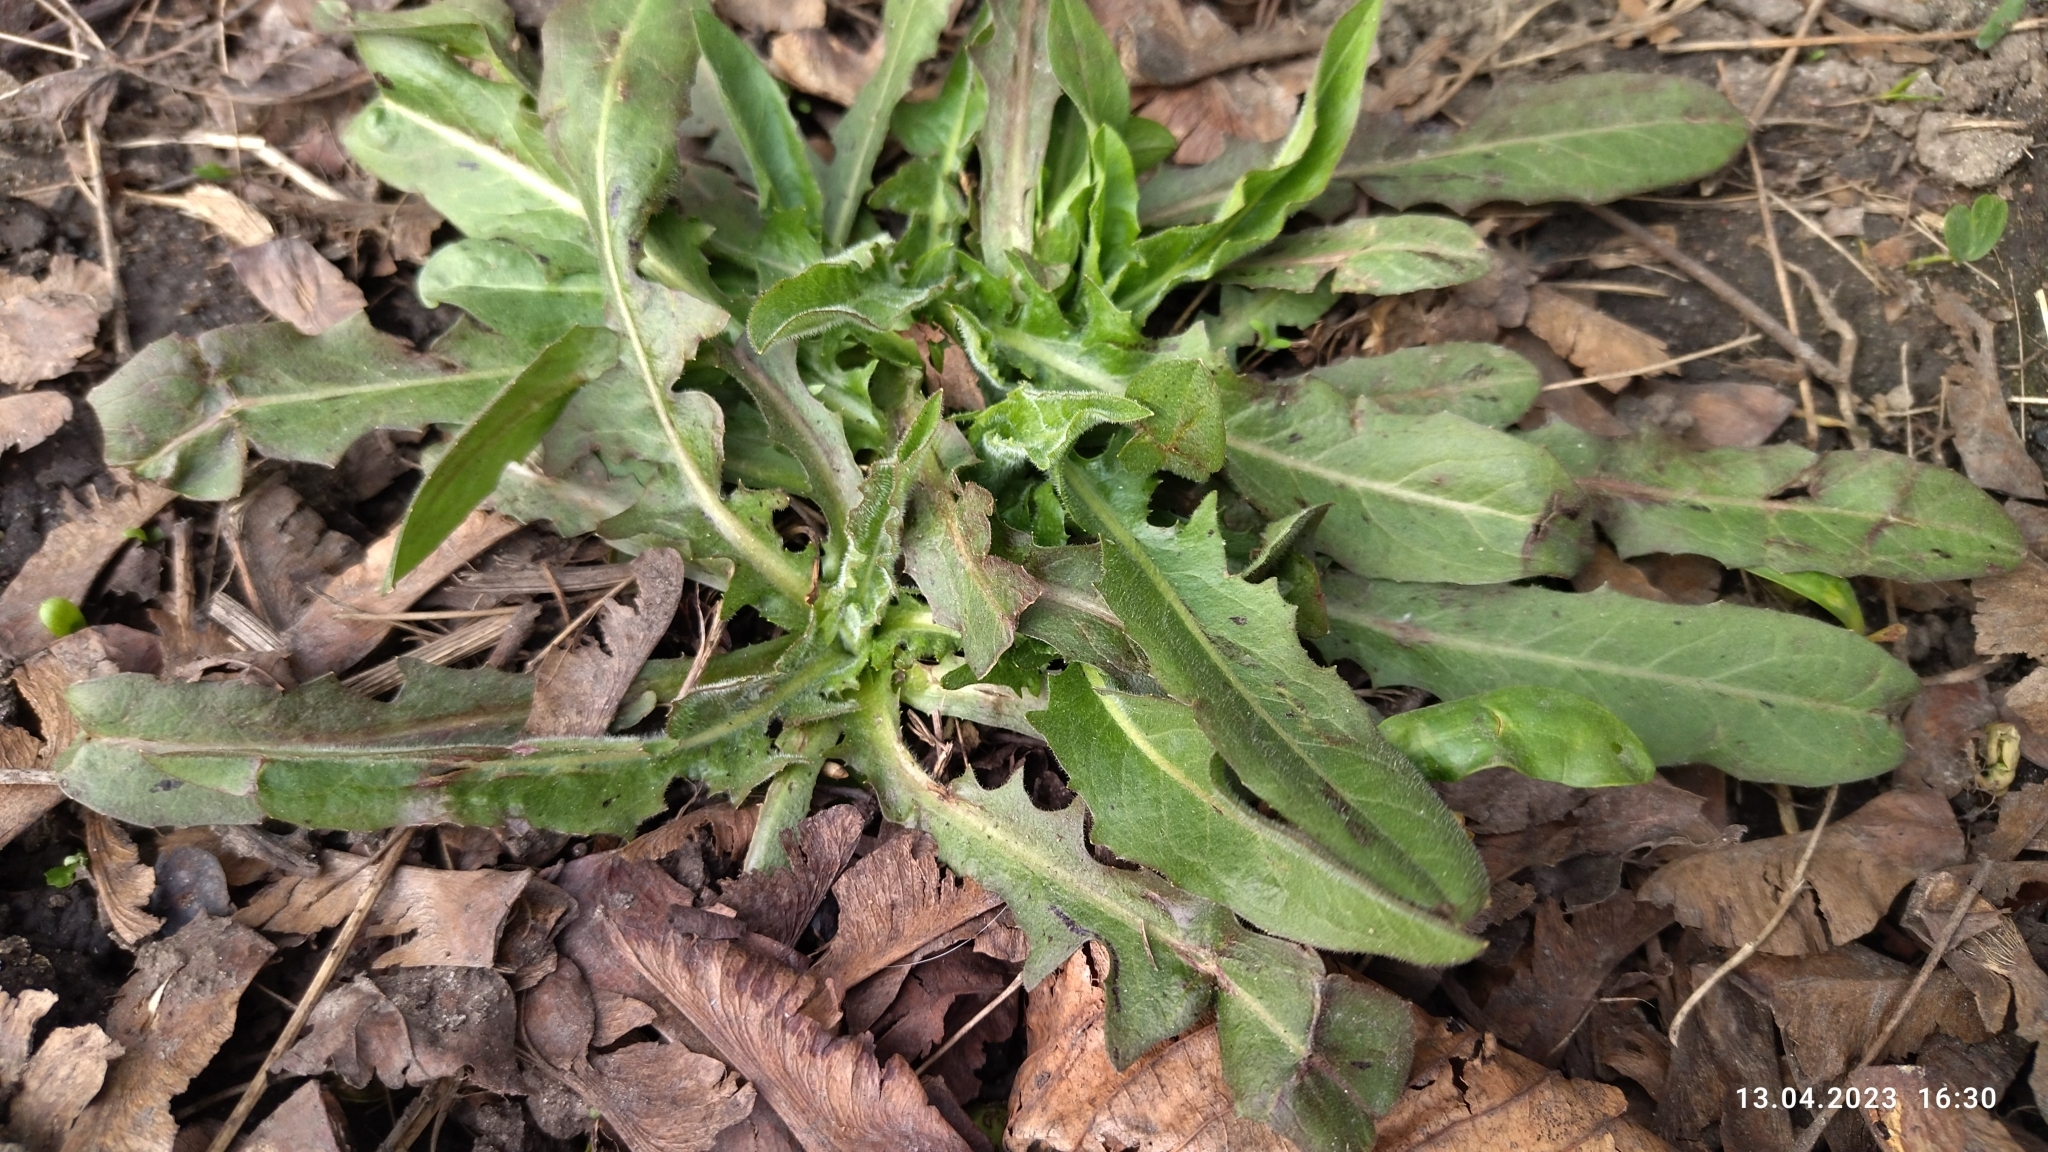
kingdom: Plantae
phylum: Tracheophyta
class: Magnoliopsida
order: Brassicales
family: Brassicaceae
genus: Bunias
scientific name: Bunias orientalis
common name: Warty-cabbage
